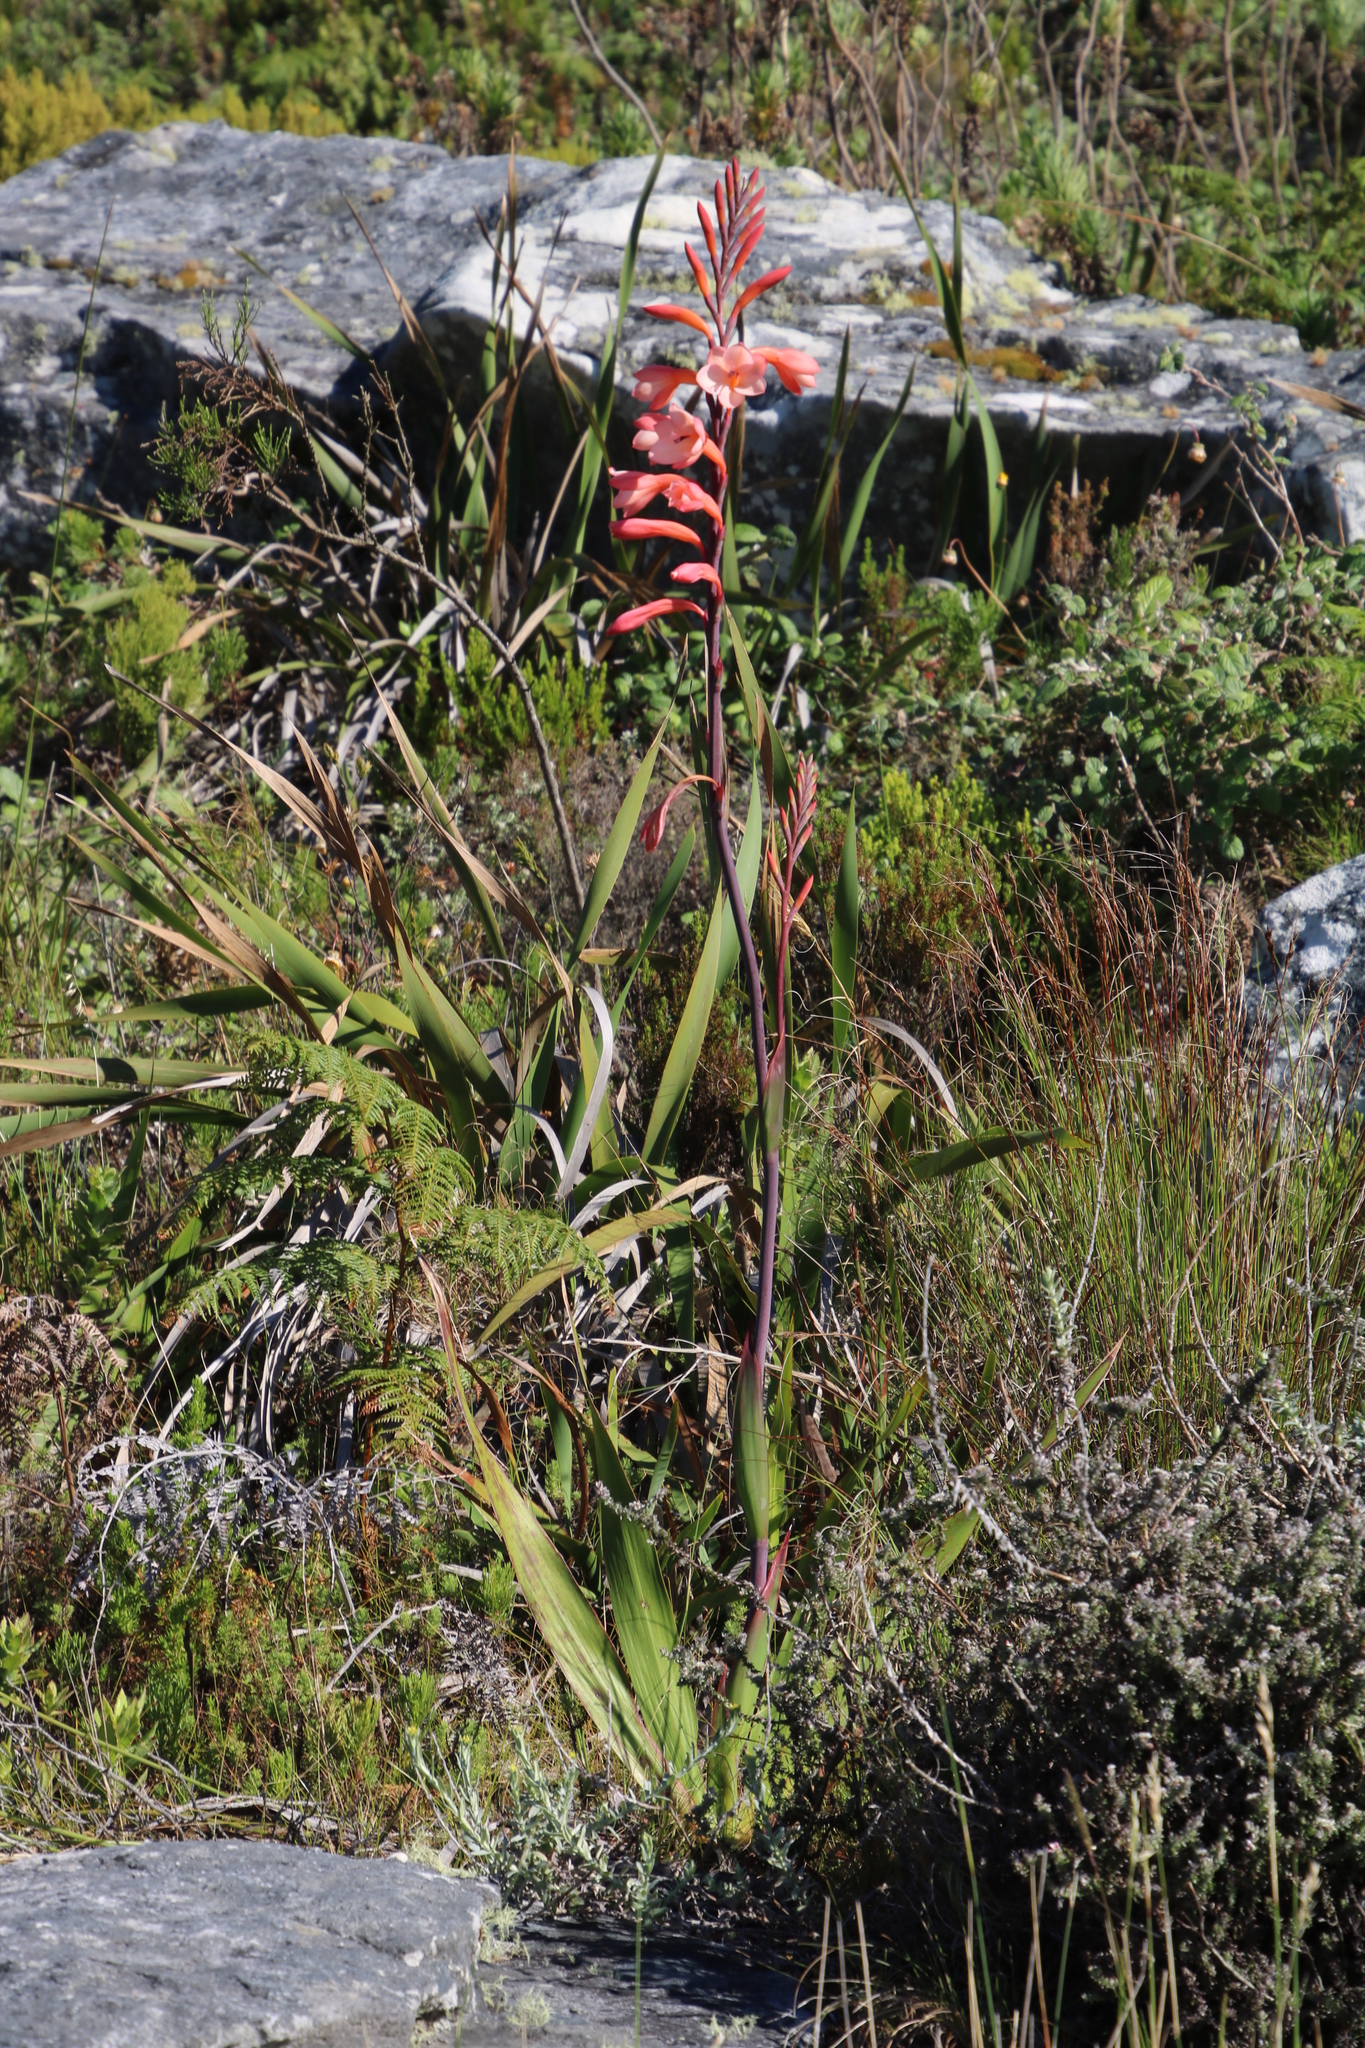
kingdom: Plantae
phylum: Tracheophyta
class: Liliopsida
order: Asparagales
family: Iridaceae
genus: Watsonia
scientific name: Watsonia tabularis
